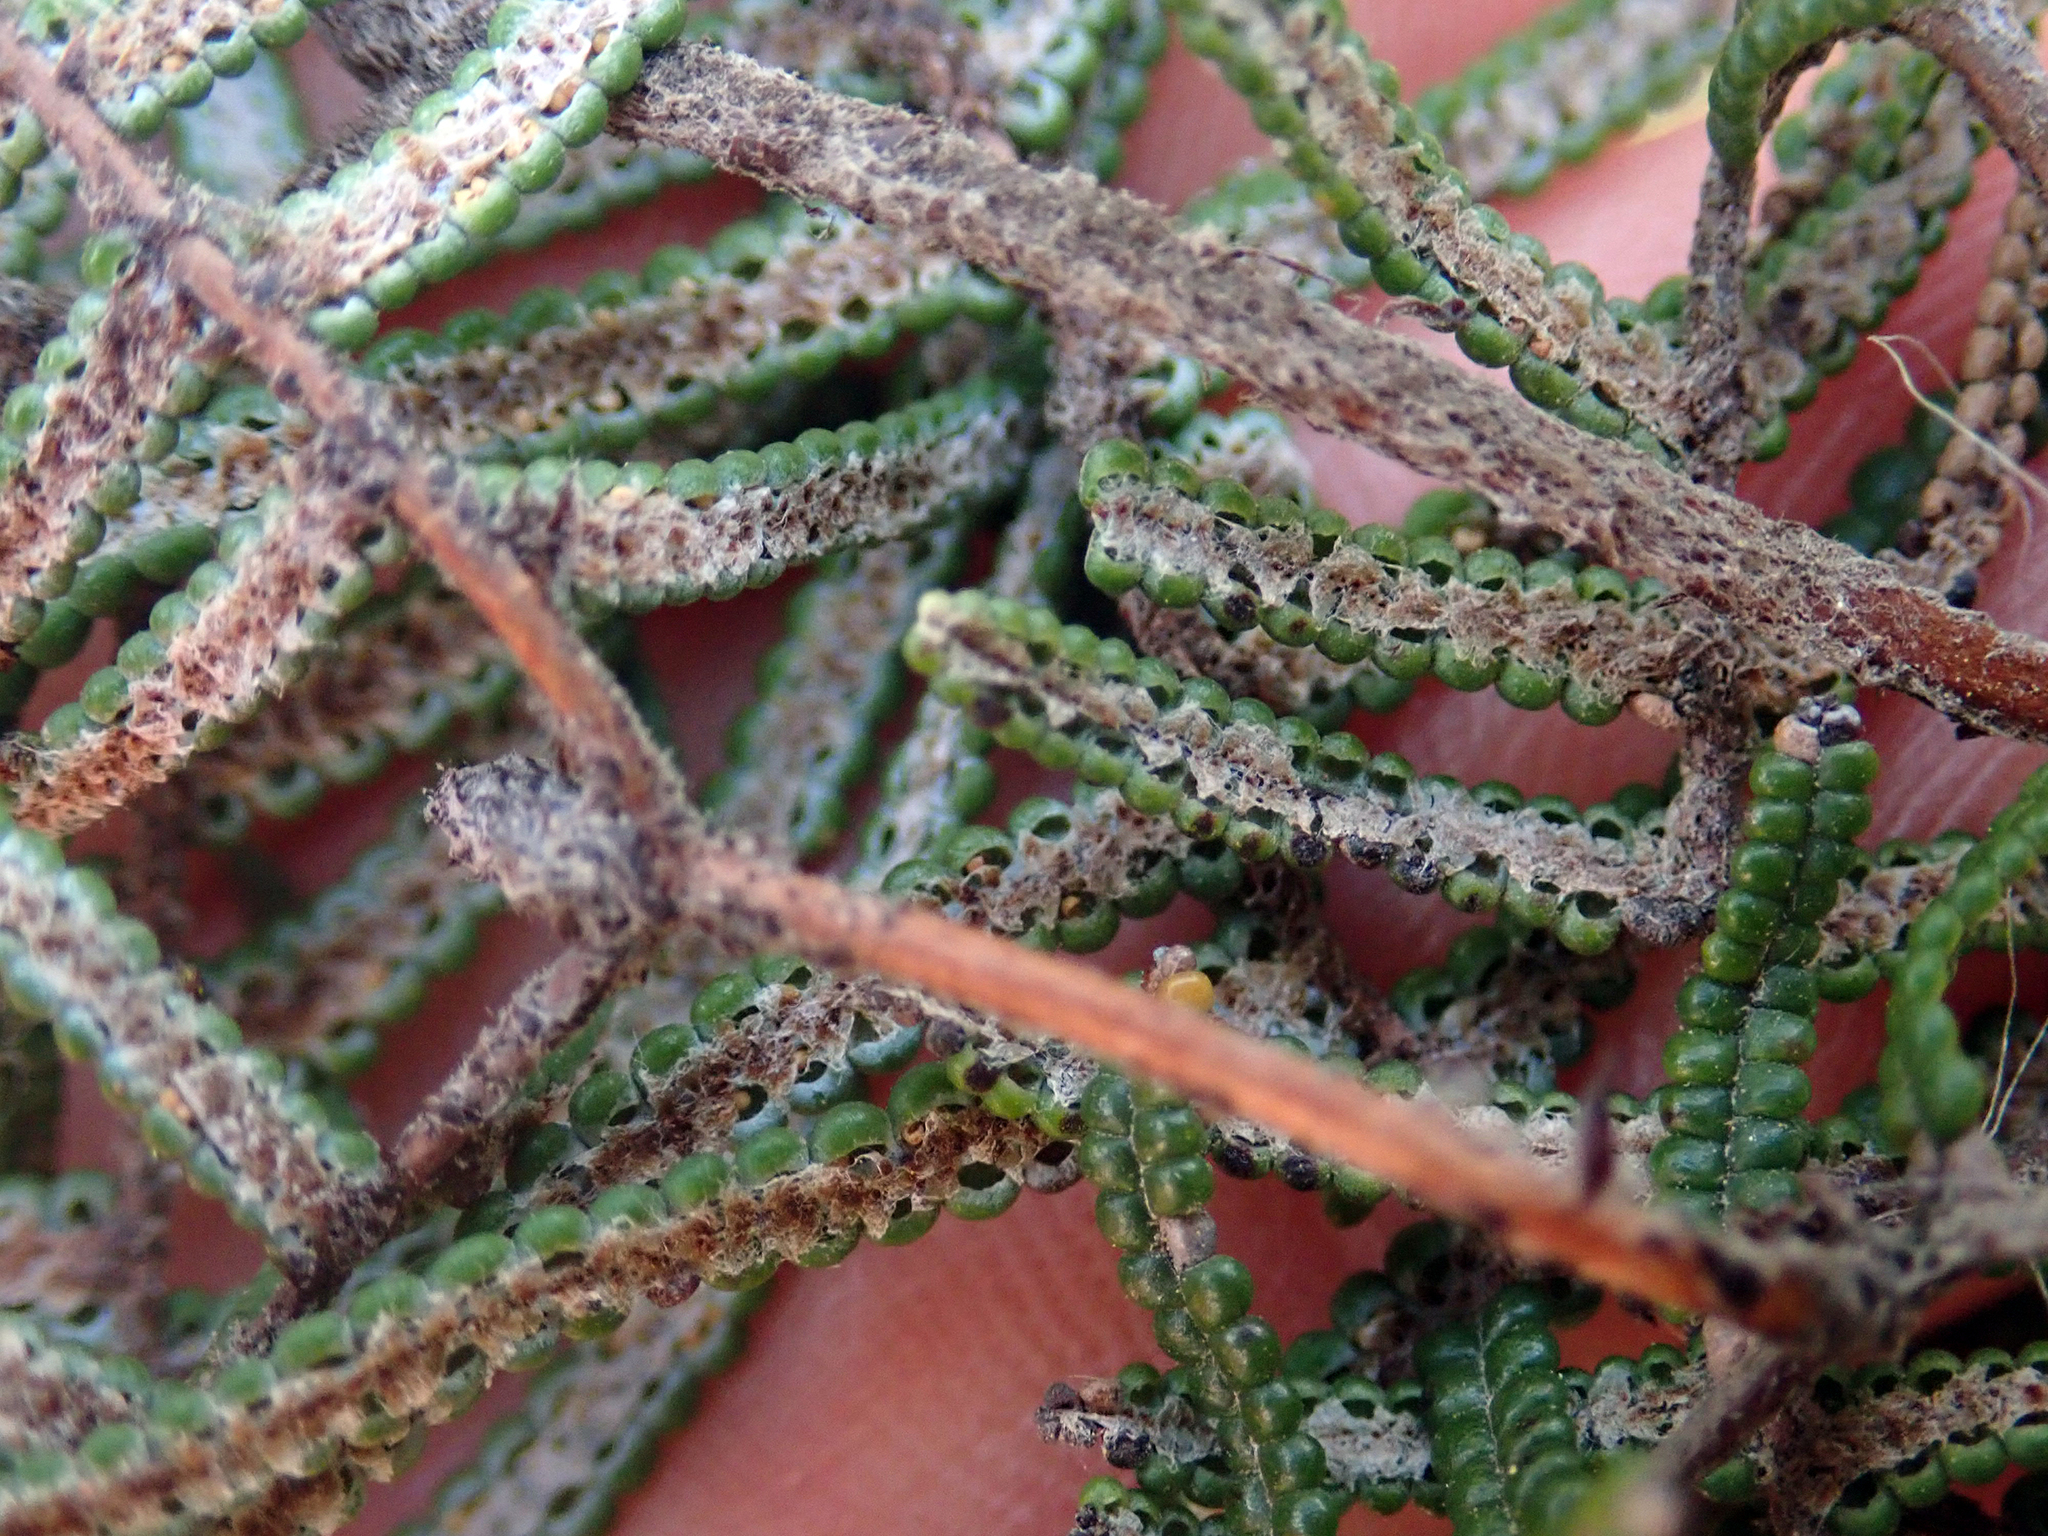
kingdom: Plantae
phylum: Tracheophyta
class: Polypodiopsida
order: Gleicheniales
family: Gleicheniaceae
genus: Gleichenia
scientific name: Gleichenia dicarpa
